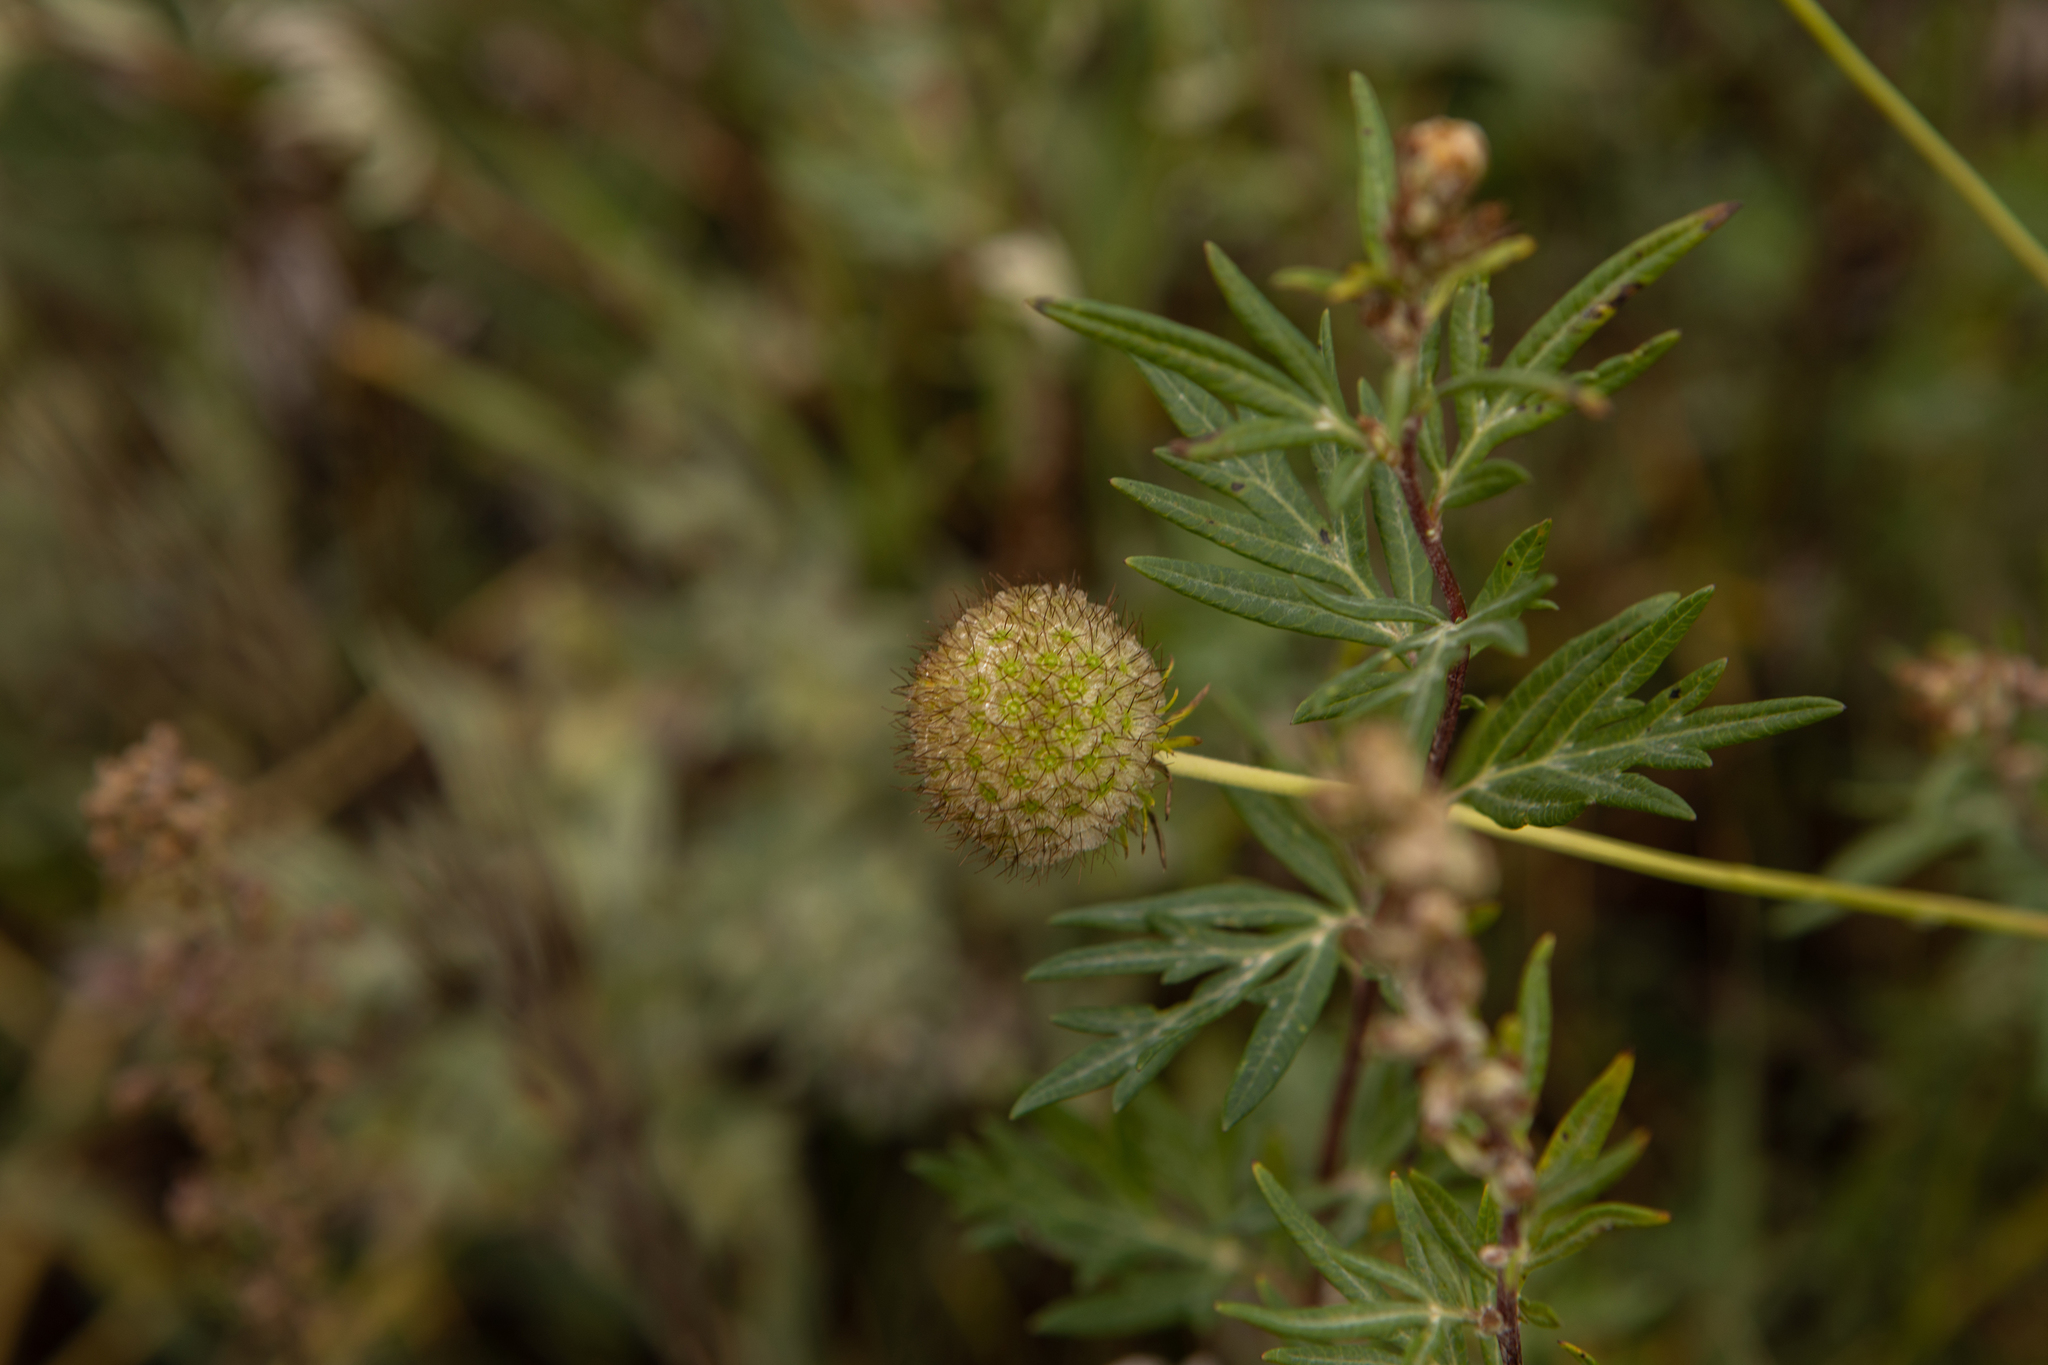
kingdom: Plantae
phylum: Tracheophyta
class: Magnoliopsida
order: Dipsacales
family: Caprifoliaceae
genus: Scabiosa
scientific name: Scabiosa ochroleuca
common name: Cream pincushions
